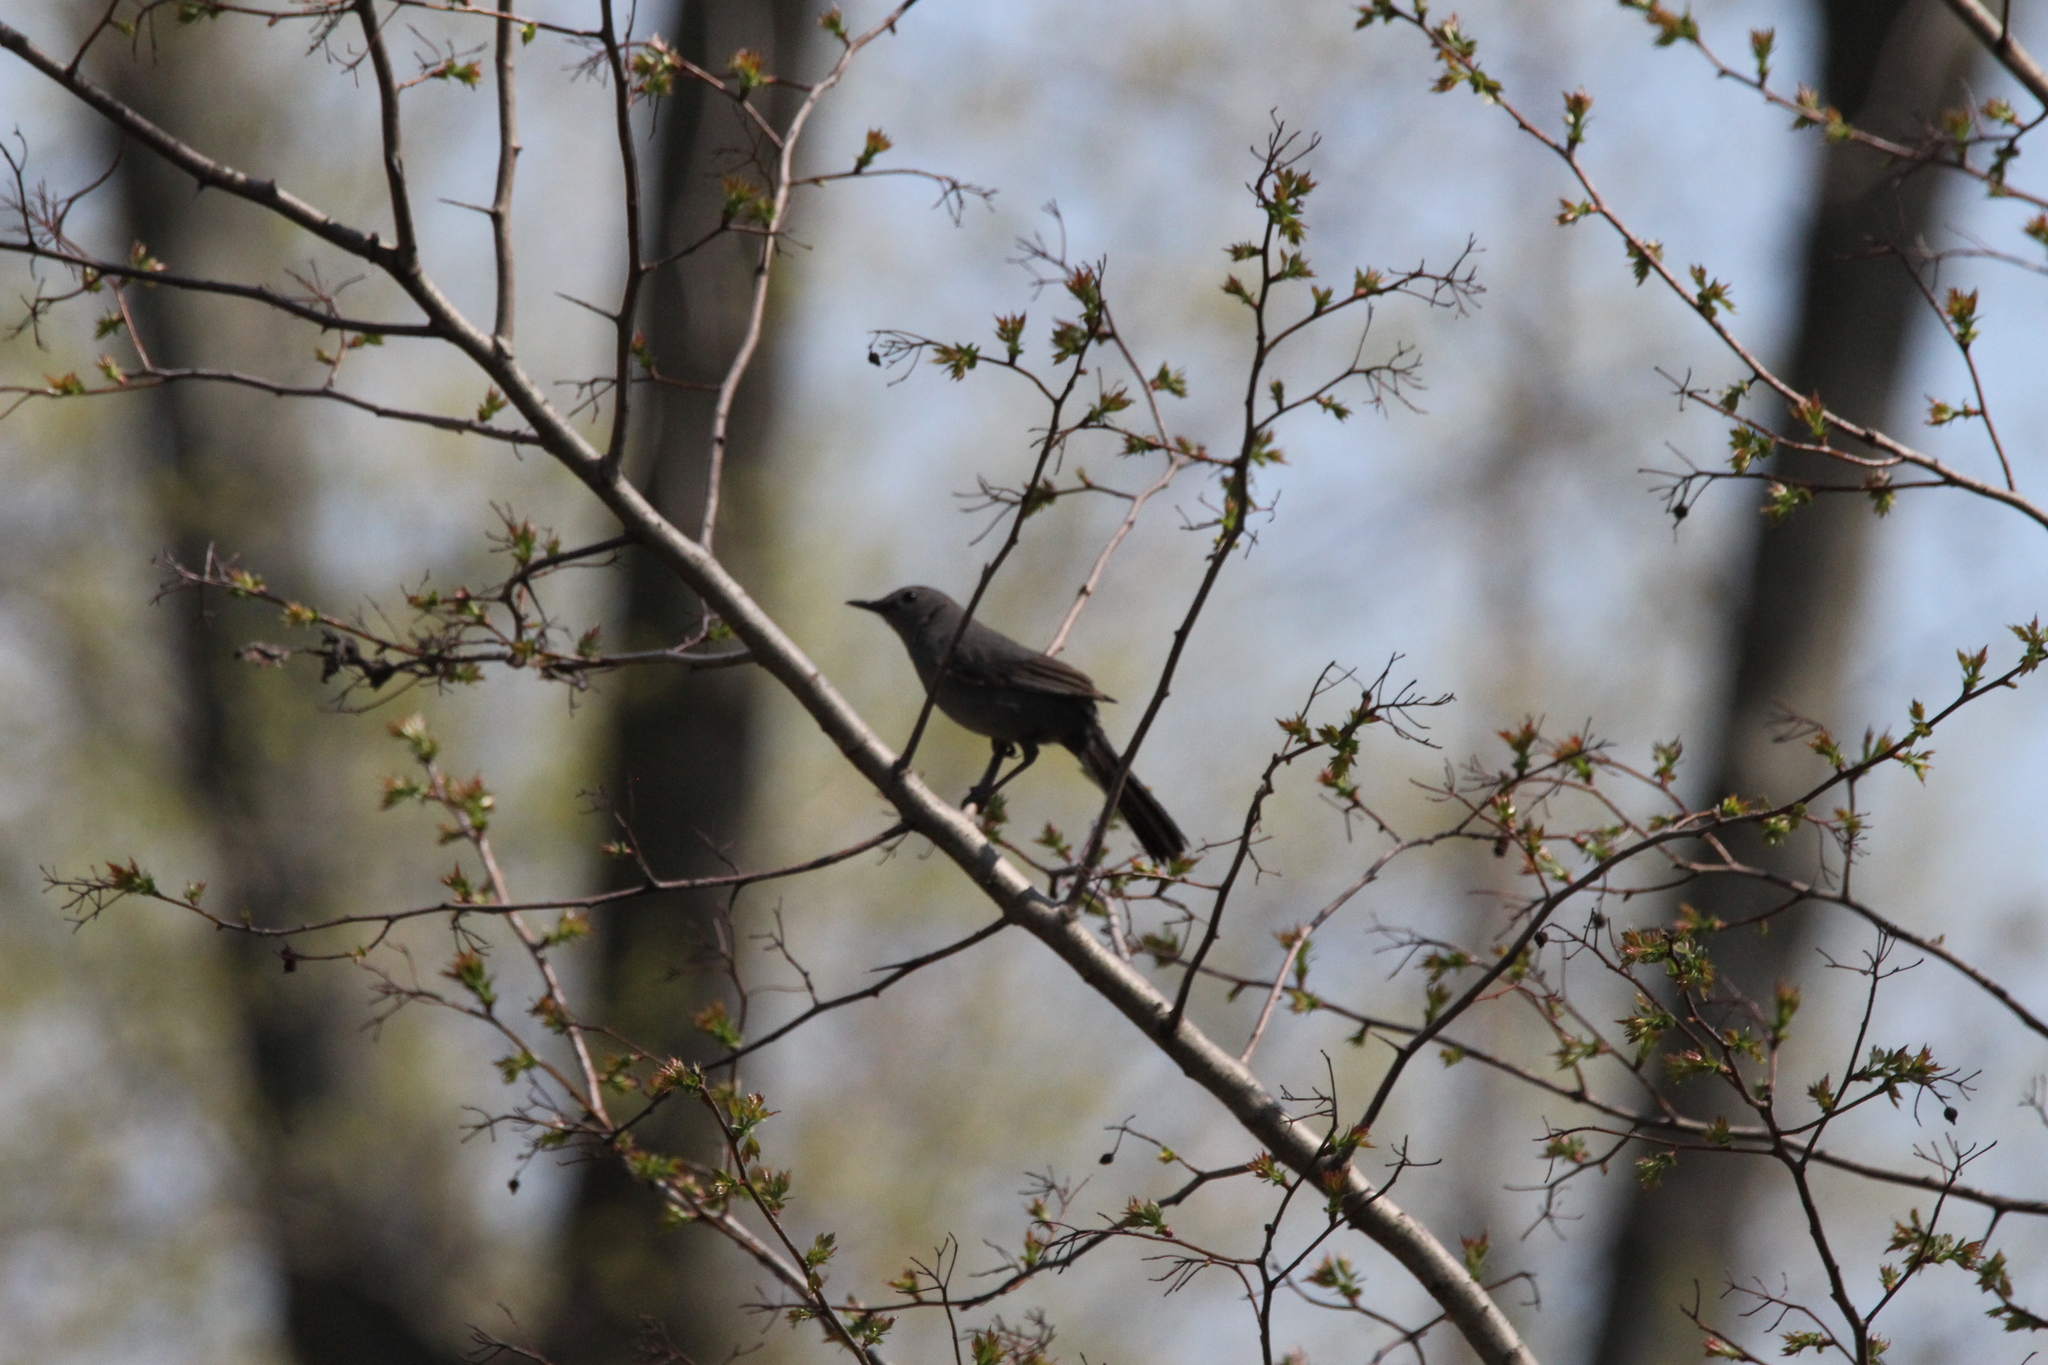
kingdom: Animalia
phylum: Chordata
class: Aves
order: Passeriformes
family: Mimidae
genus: Dumetella
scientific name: Dumetella carolinensis
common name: Gray catbird
